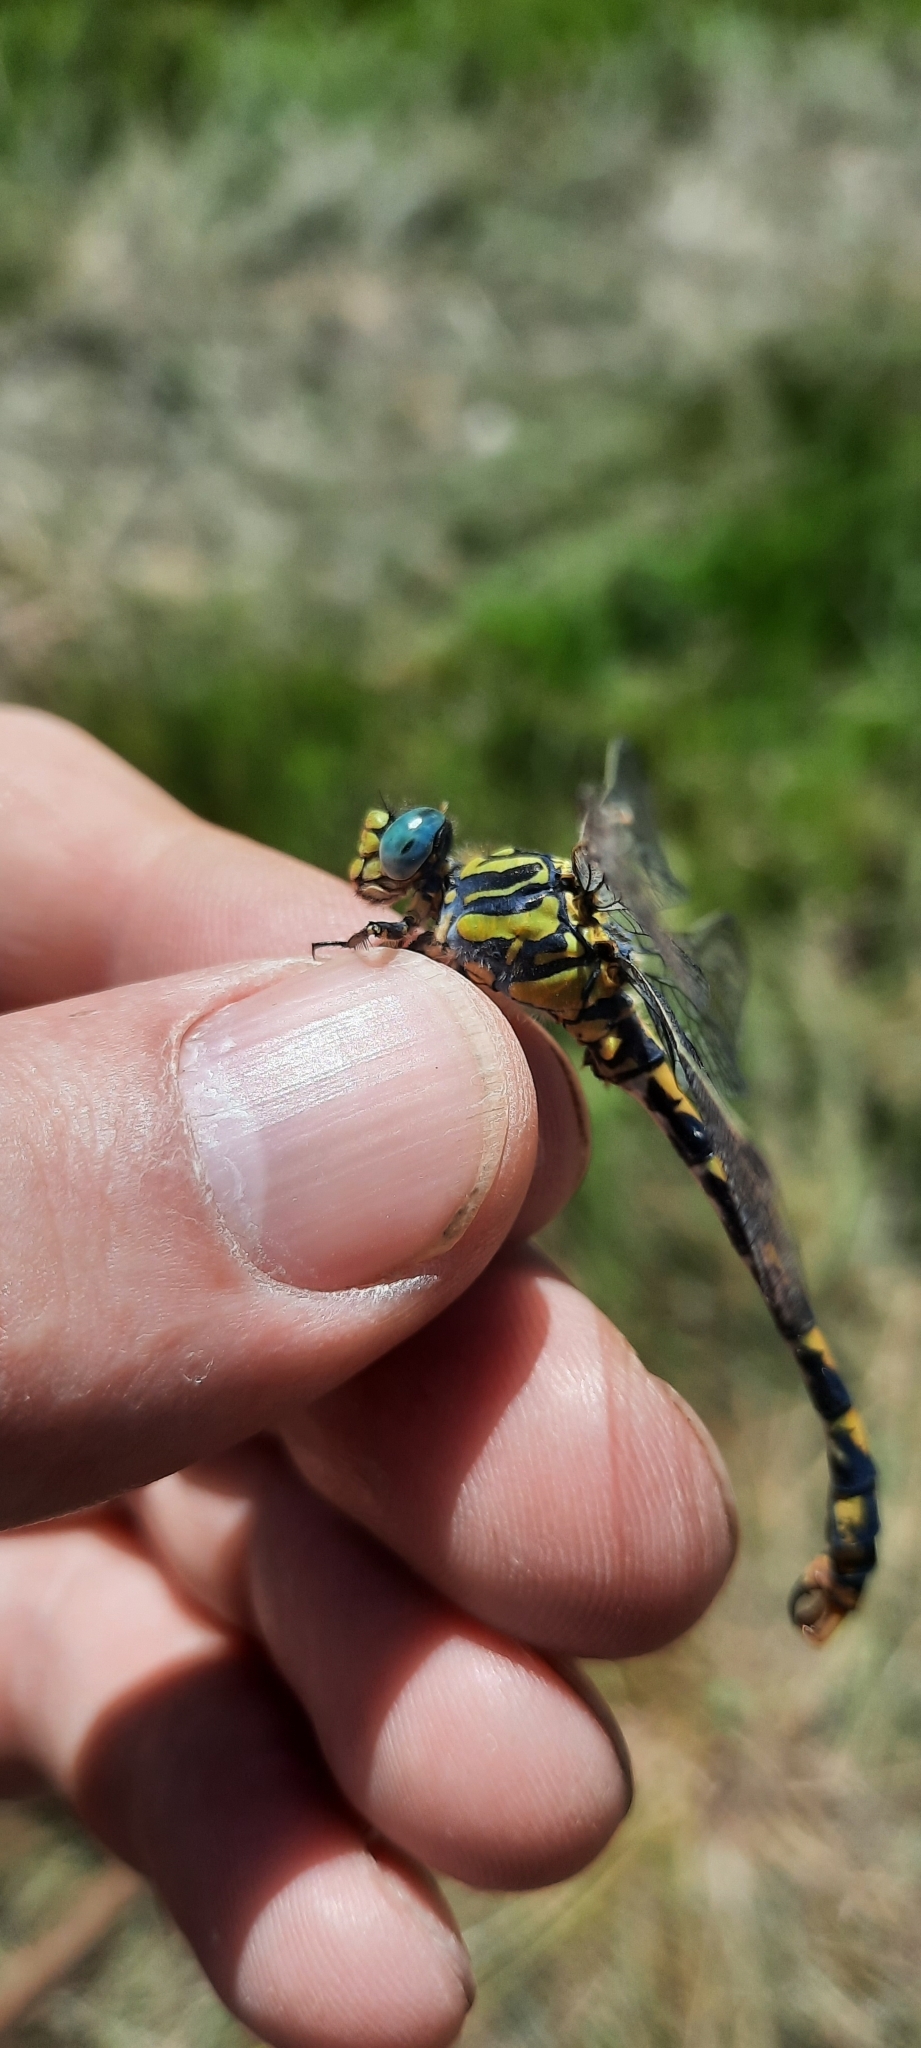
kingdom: Animalia
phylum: Arthropoda
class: Insecta
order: Odonata
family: Gomphidae
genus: Onychogomphus
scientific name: Onychogomphus uncatus
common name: Large pincertail
